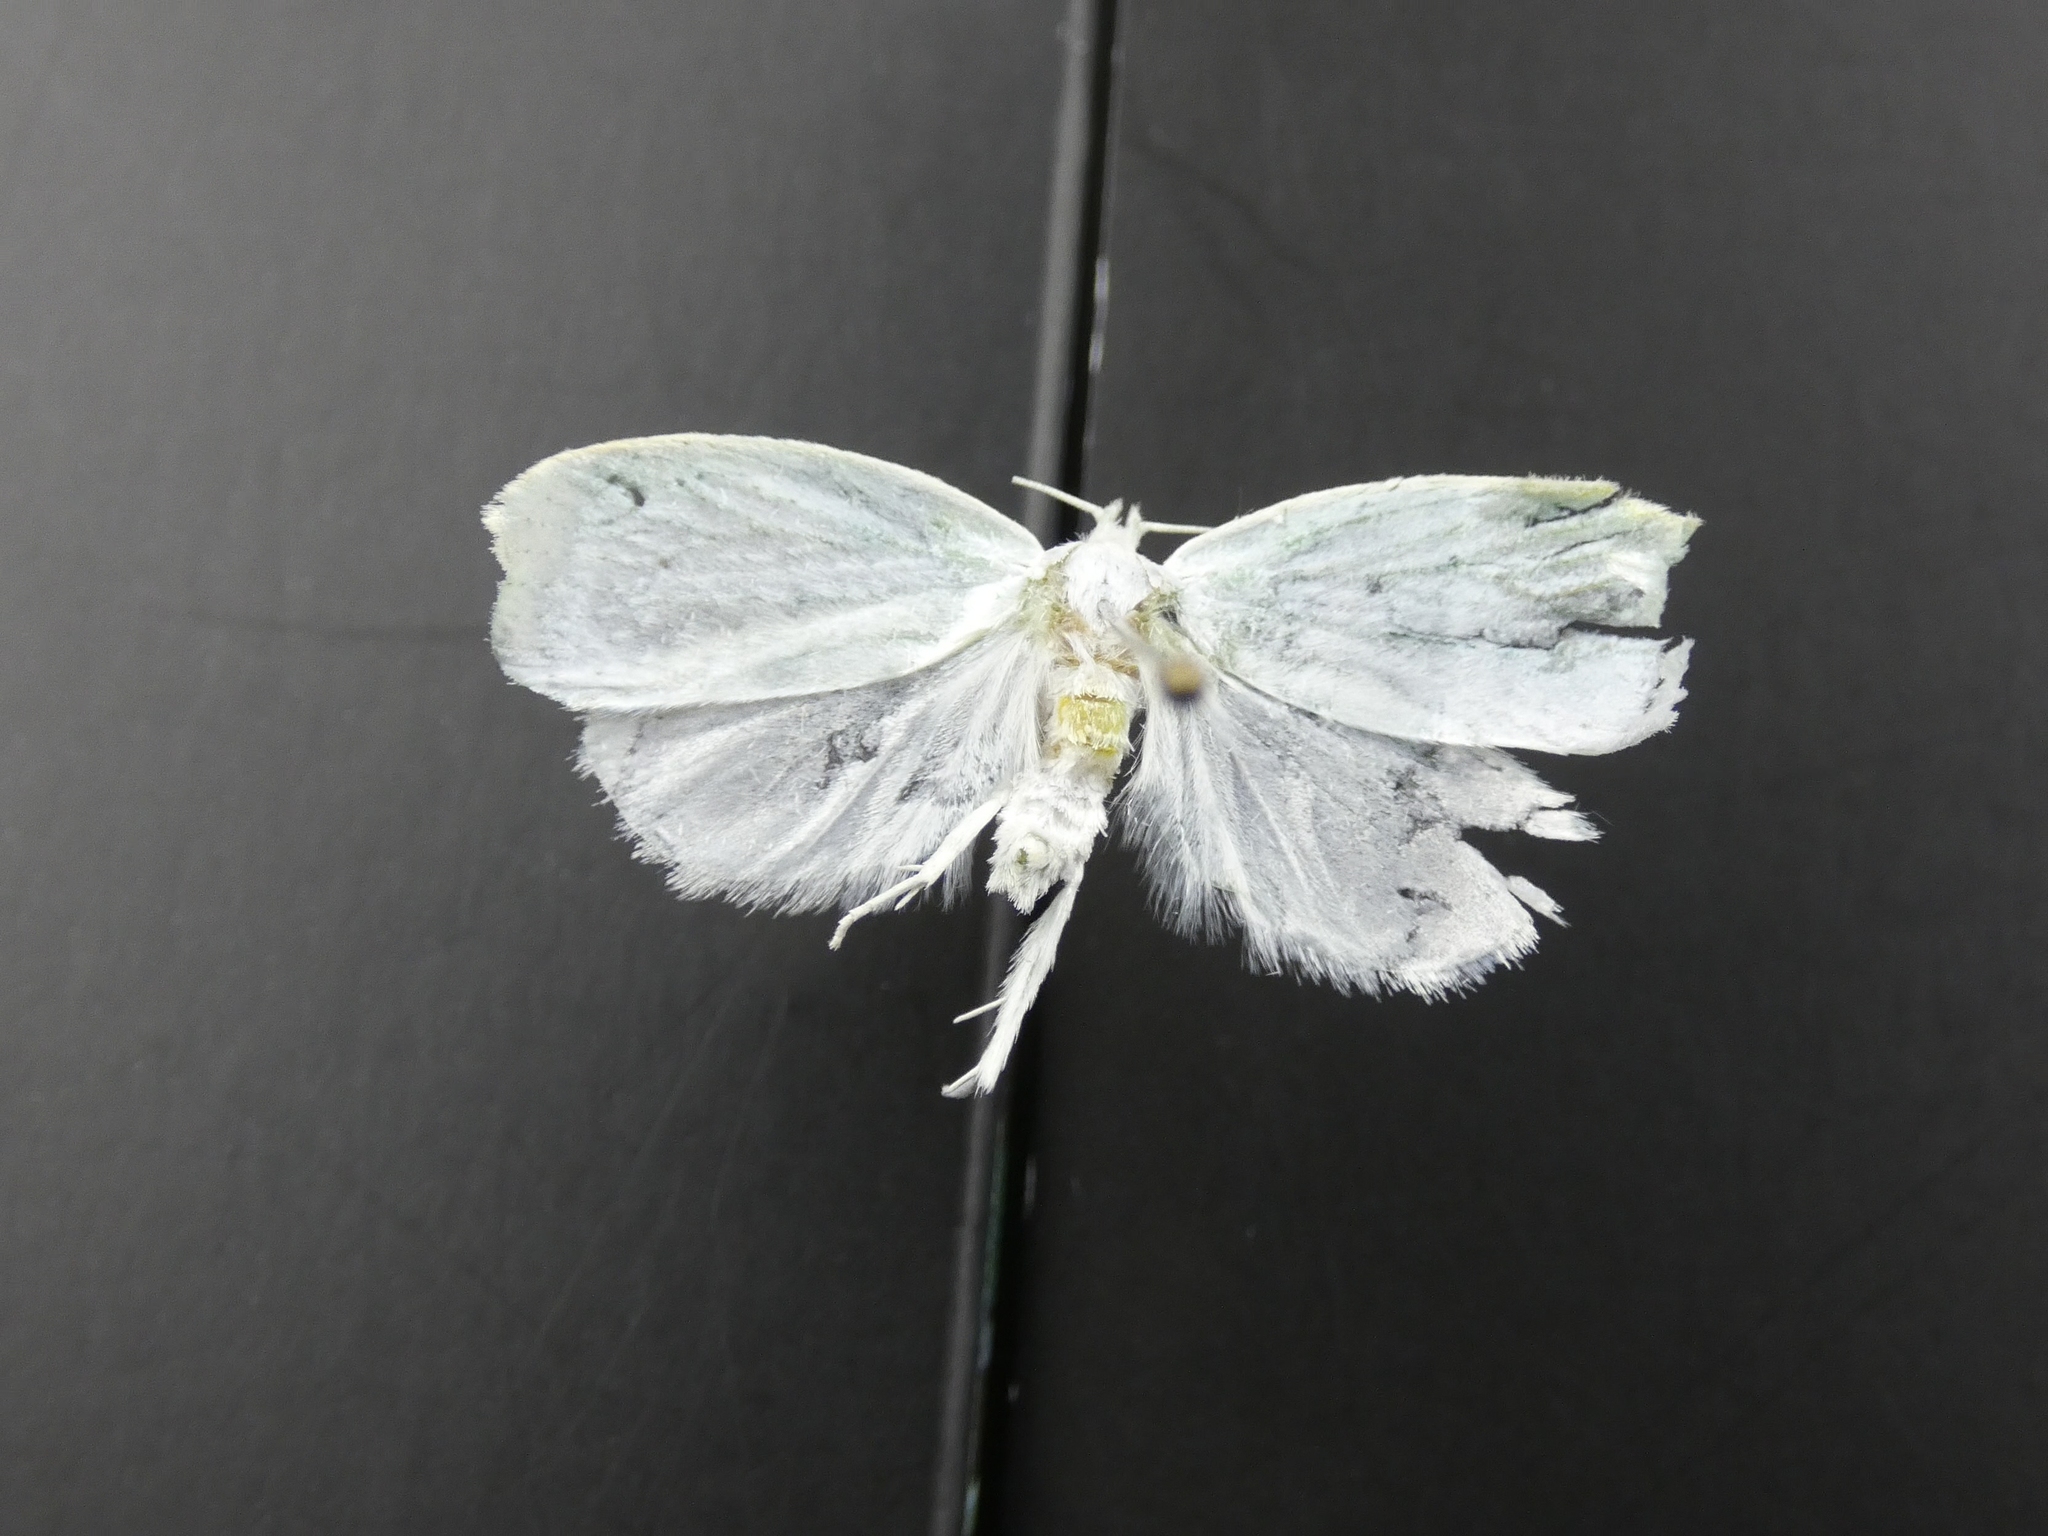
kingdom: Animalia
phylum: Arthropoda
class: Insecta
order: Lepidoptera
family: Oecophoridae
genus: Nymphostola
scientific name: Nymphostola galactina
